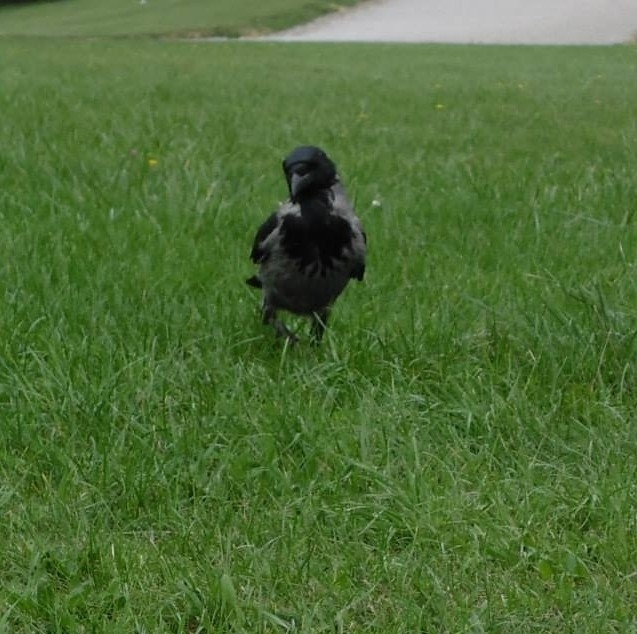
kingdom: Animalia
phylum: Chordata
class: Aves
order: Passeriformes
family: Corvidae
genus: Corvus
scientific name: Corvus cornix
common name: Hooded crow
